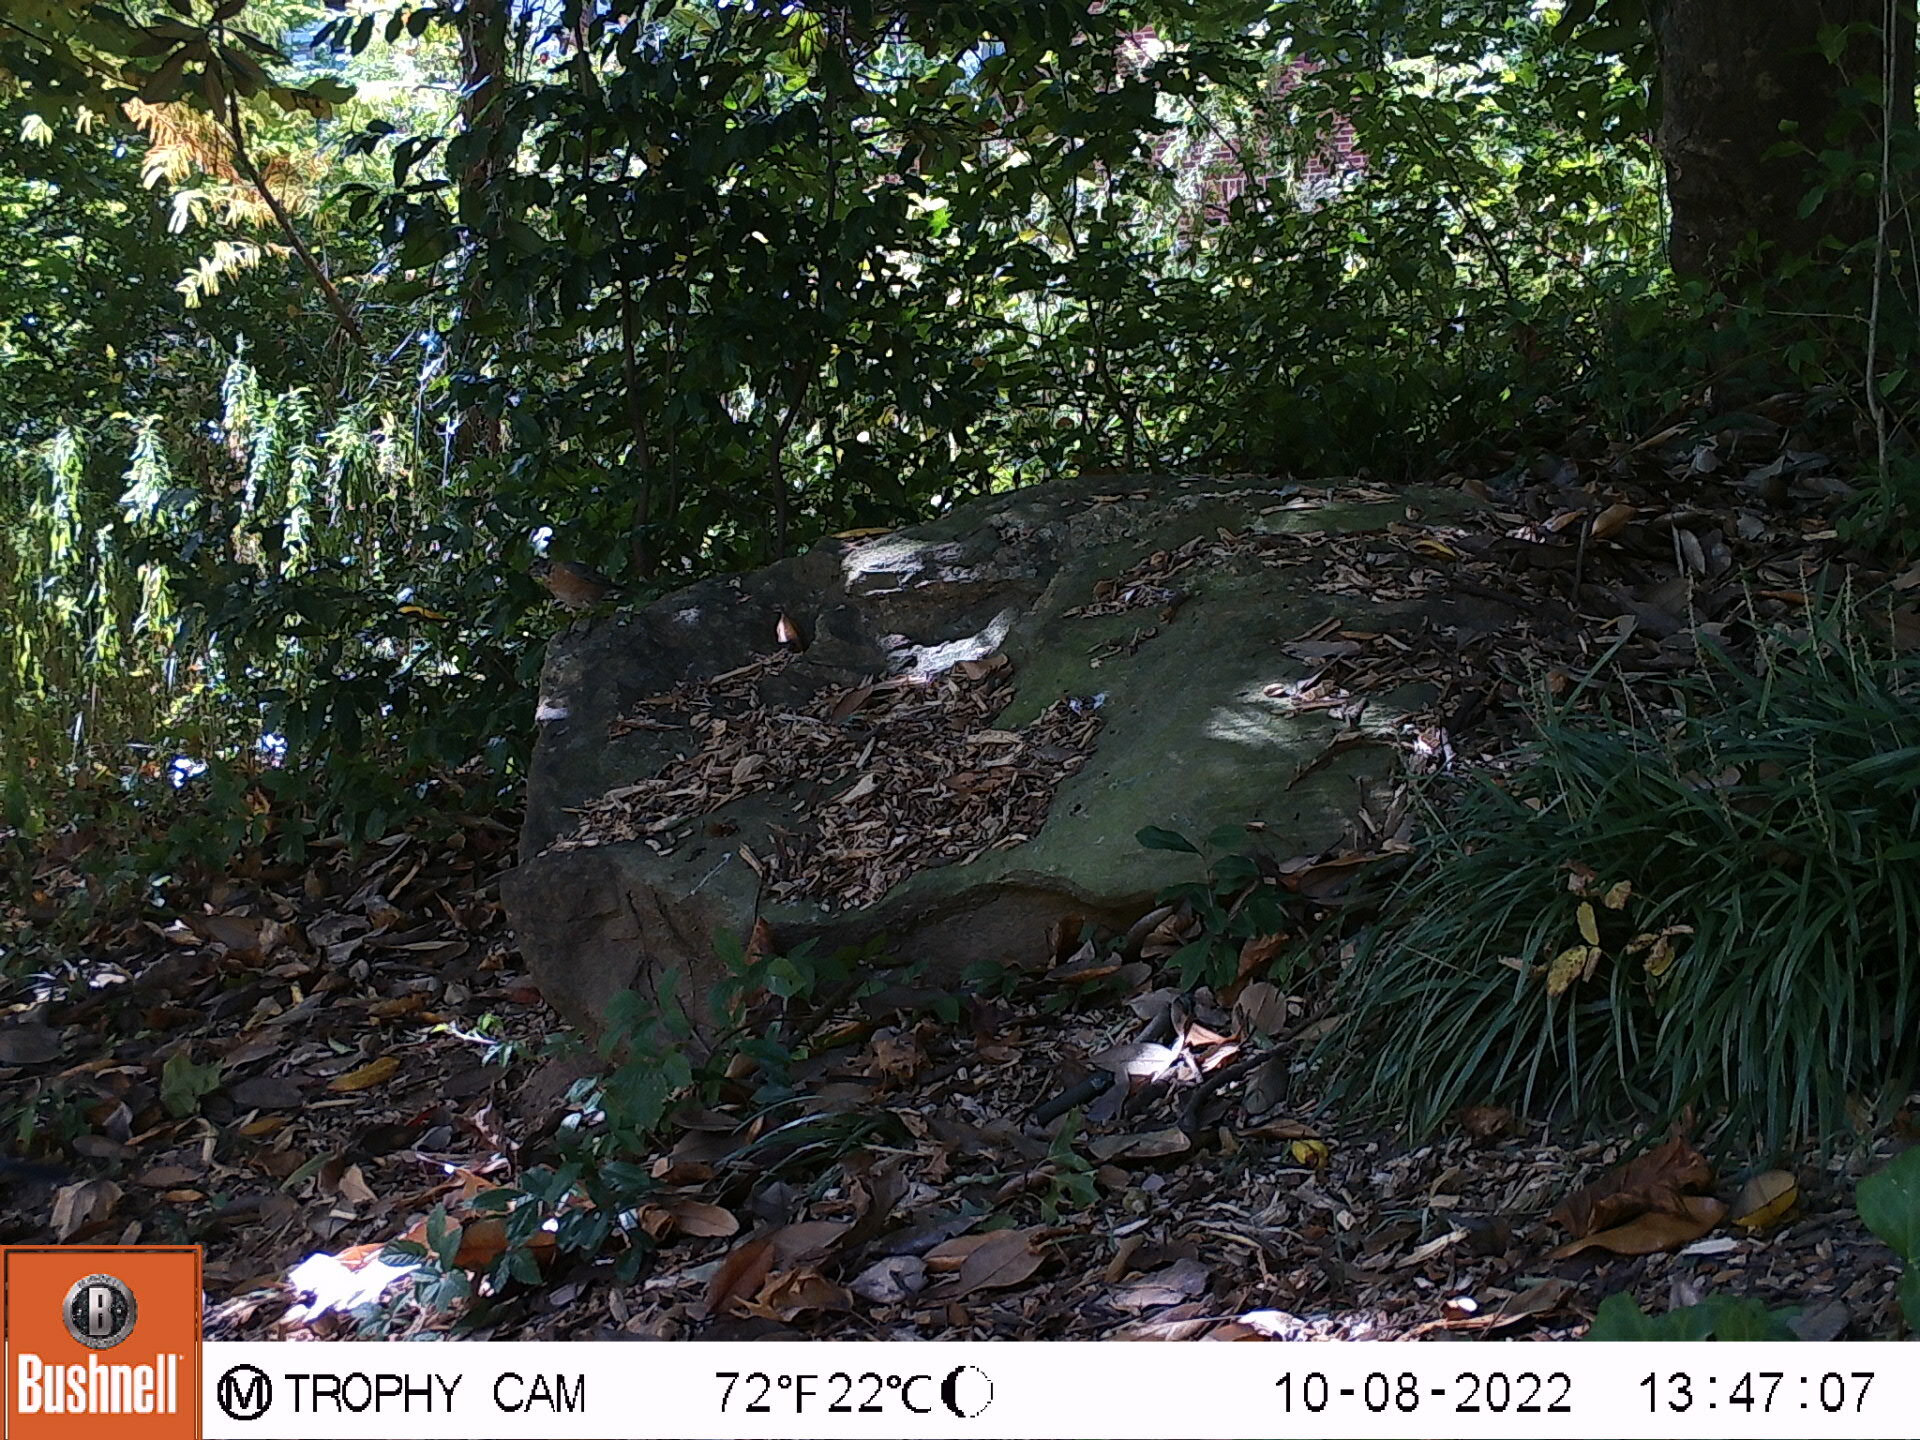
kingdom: Animalia
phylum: Chordata
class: Aves
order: Passeriformes
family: Turdidae
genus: Turdus
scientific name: Turdus migratorius
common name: American robin
